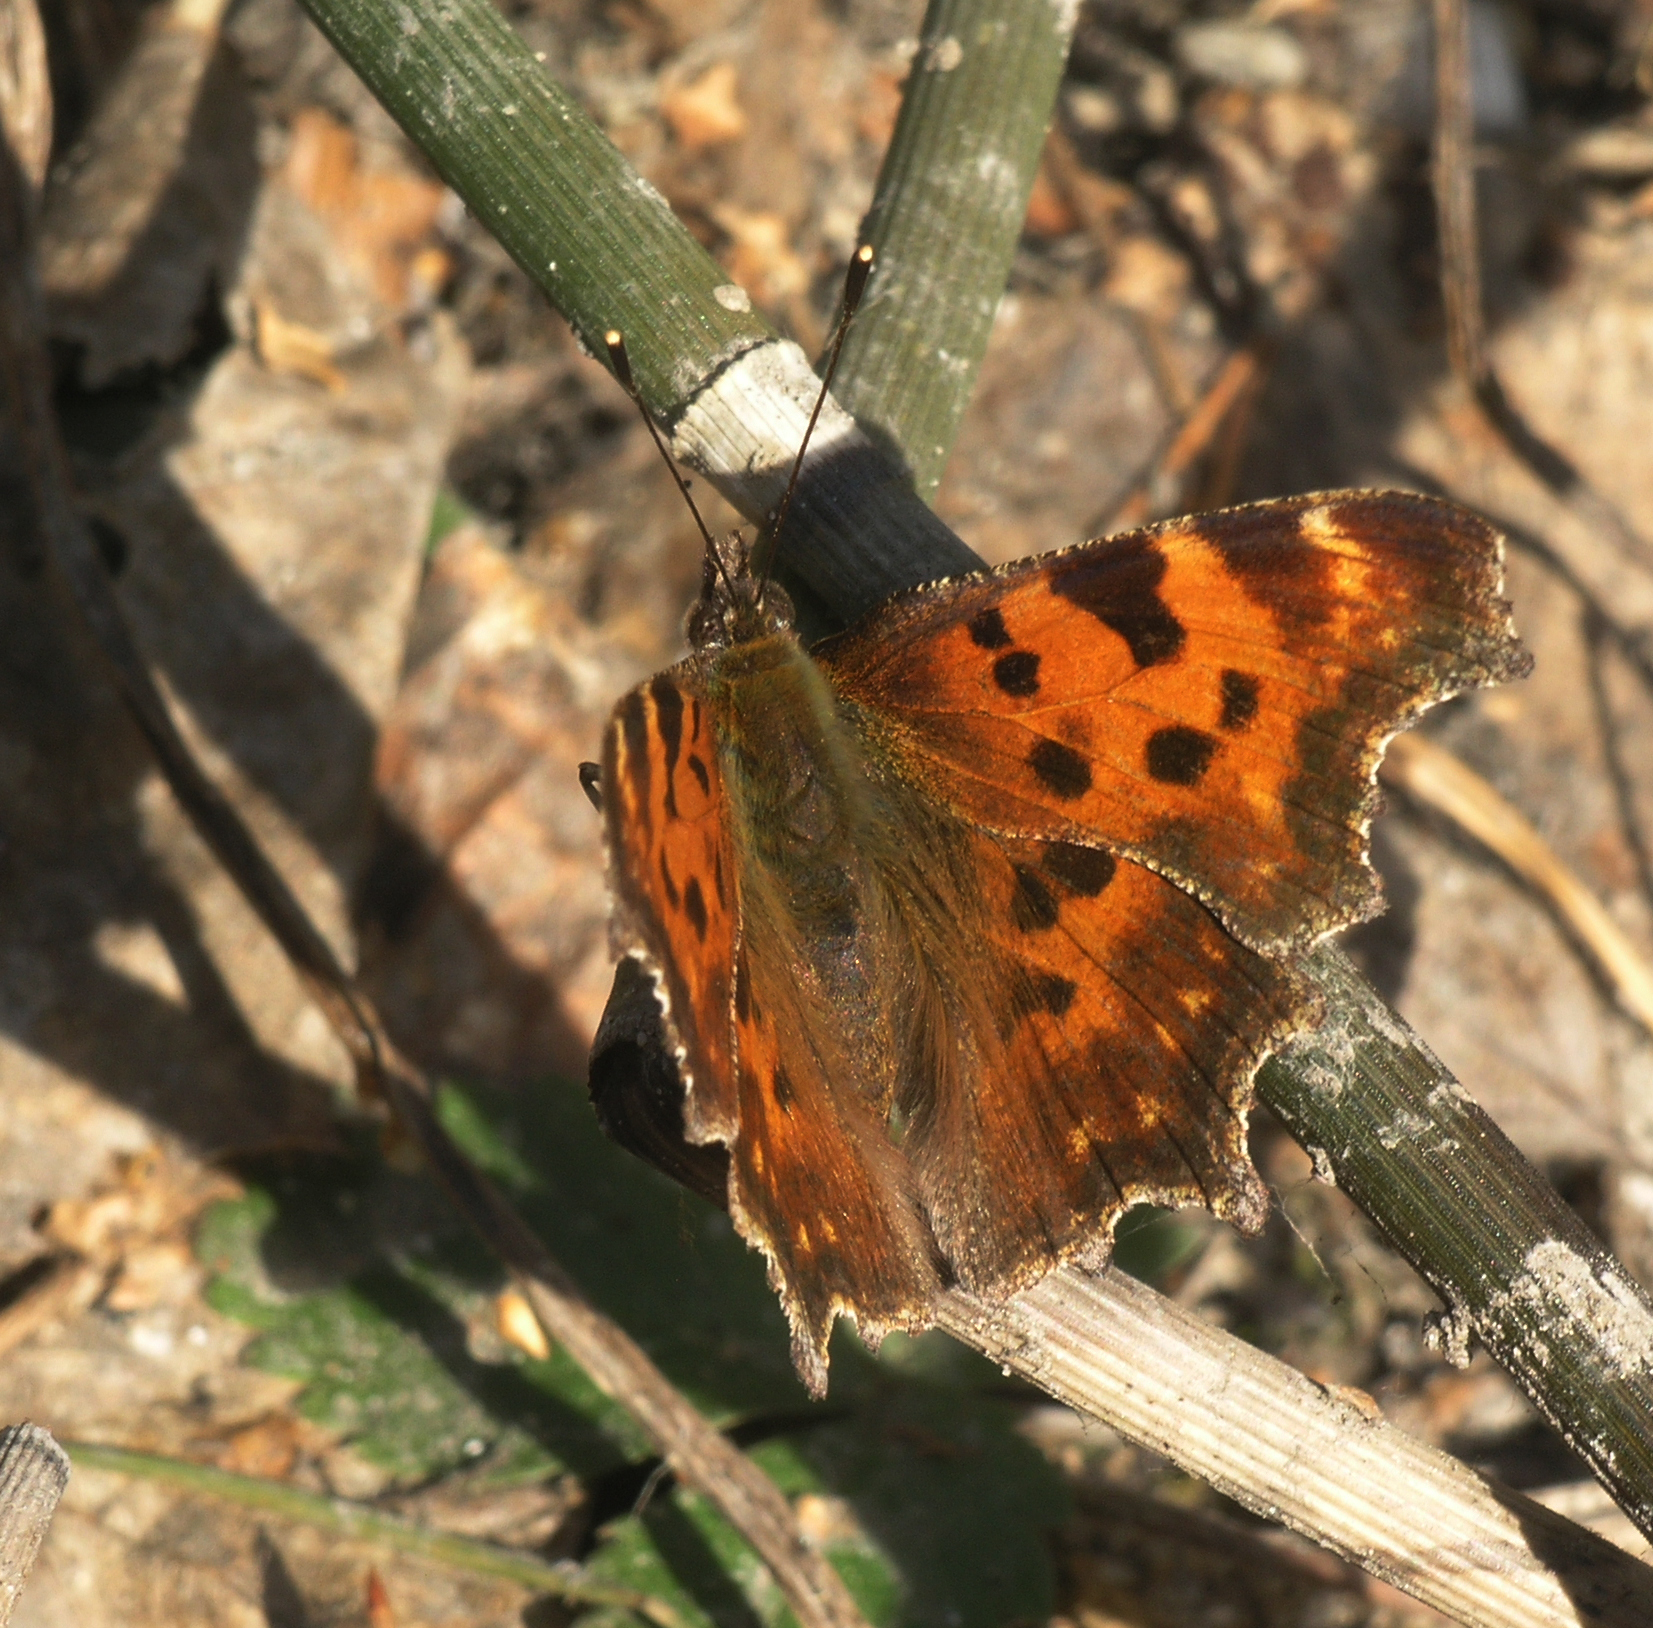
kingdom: Animalia
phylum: Arthropoda
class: Insecta
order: Lepidoptera
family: Nymphalidae
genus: Polygonia
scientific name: Polygonia c-album
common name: Comma
